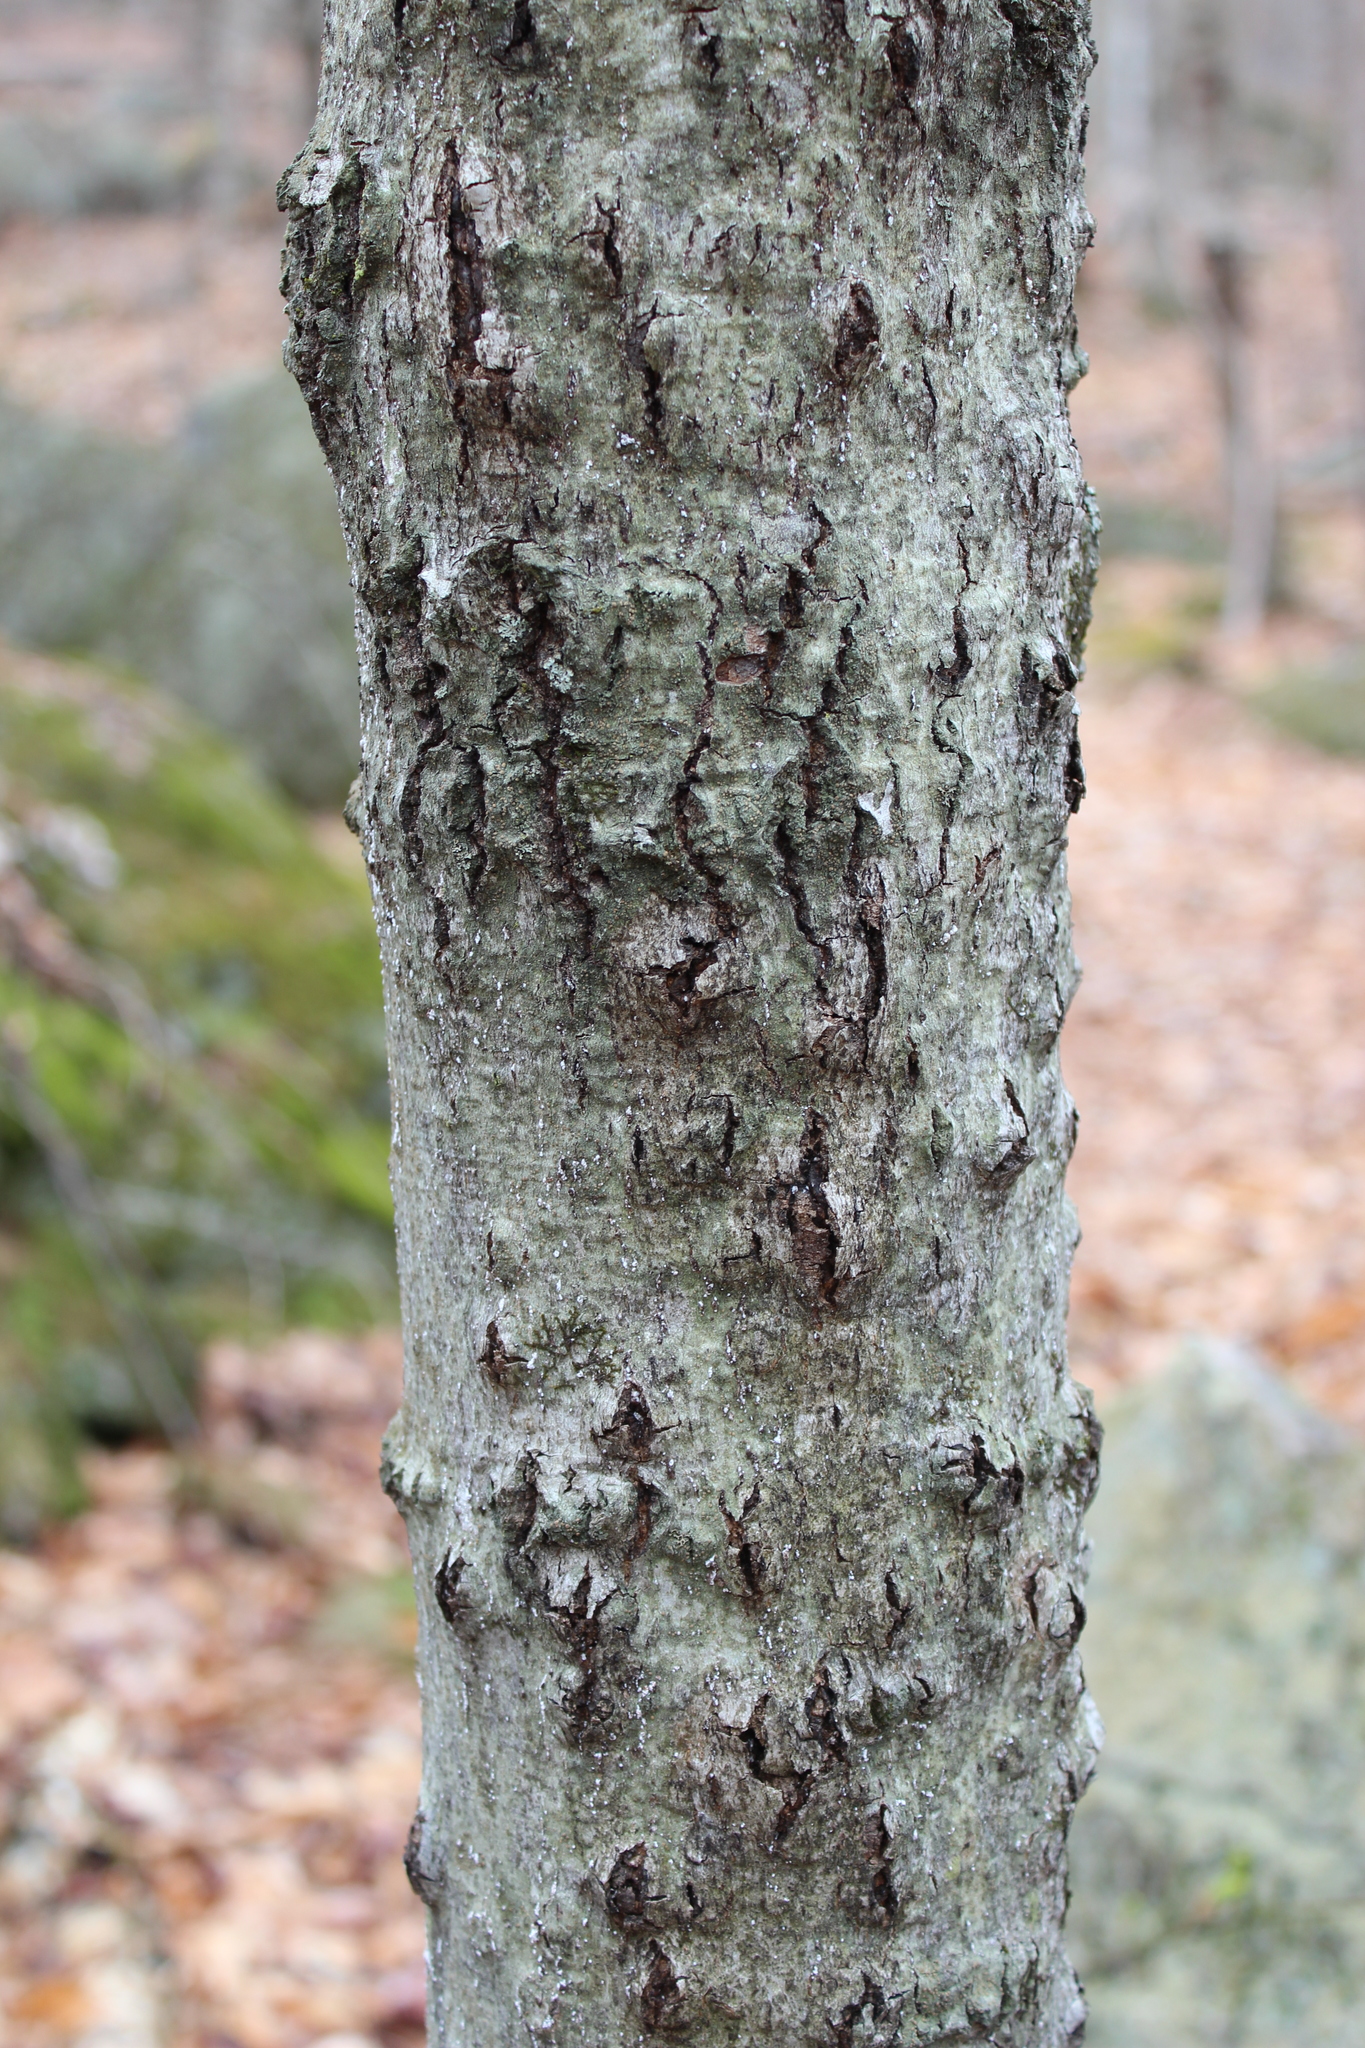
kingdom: Plantae
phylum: Tracheophyta
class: Magnoliopsida
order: Fagales
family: Fagaceae
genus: Fagus
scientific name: Fagus grandifolia
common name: American beech
